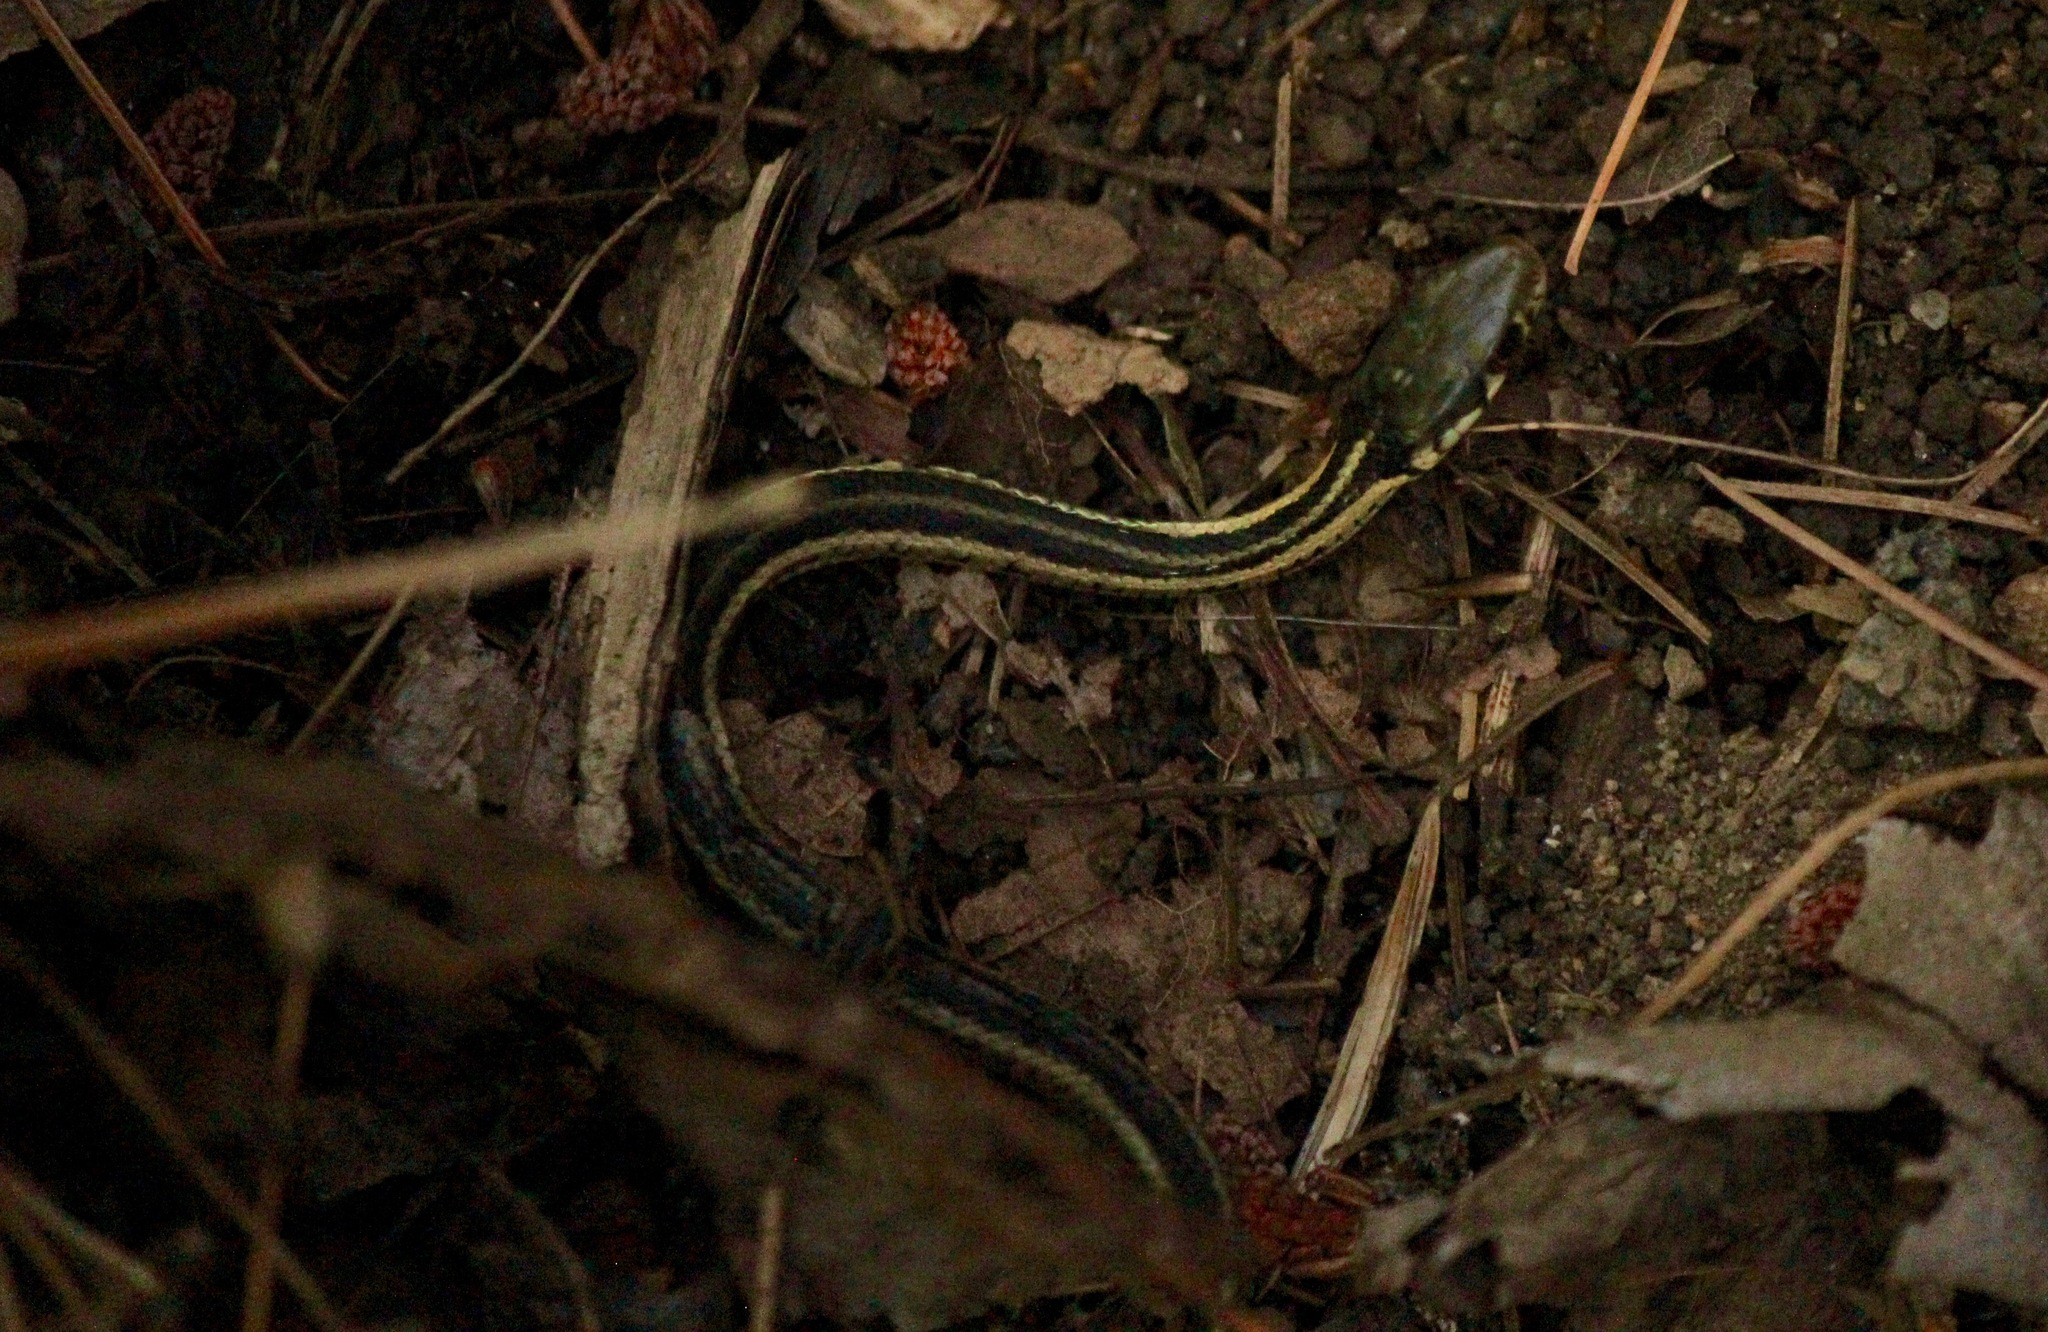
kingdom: Animalia
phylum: Chordata
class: Squamata
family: Colubridae
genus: Thamnophis
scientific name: Thamnophis sirtalis
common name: Common garter snake
